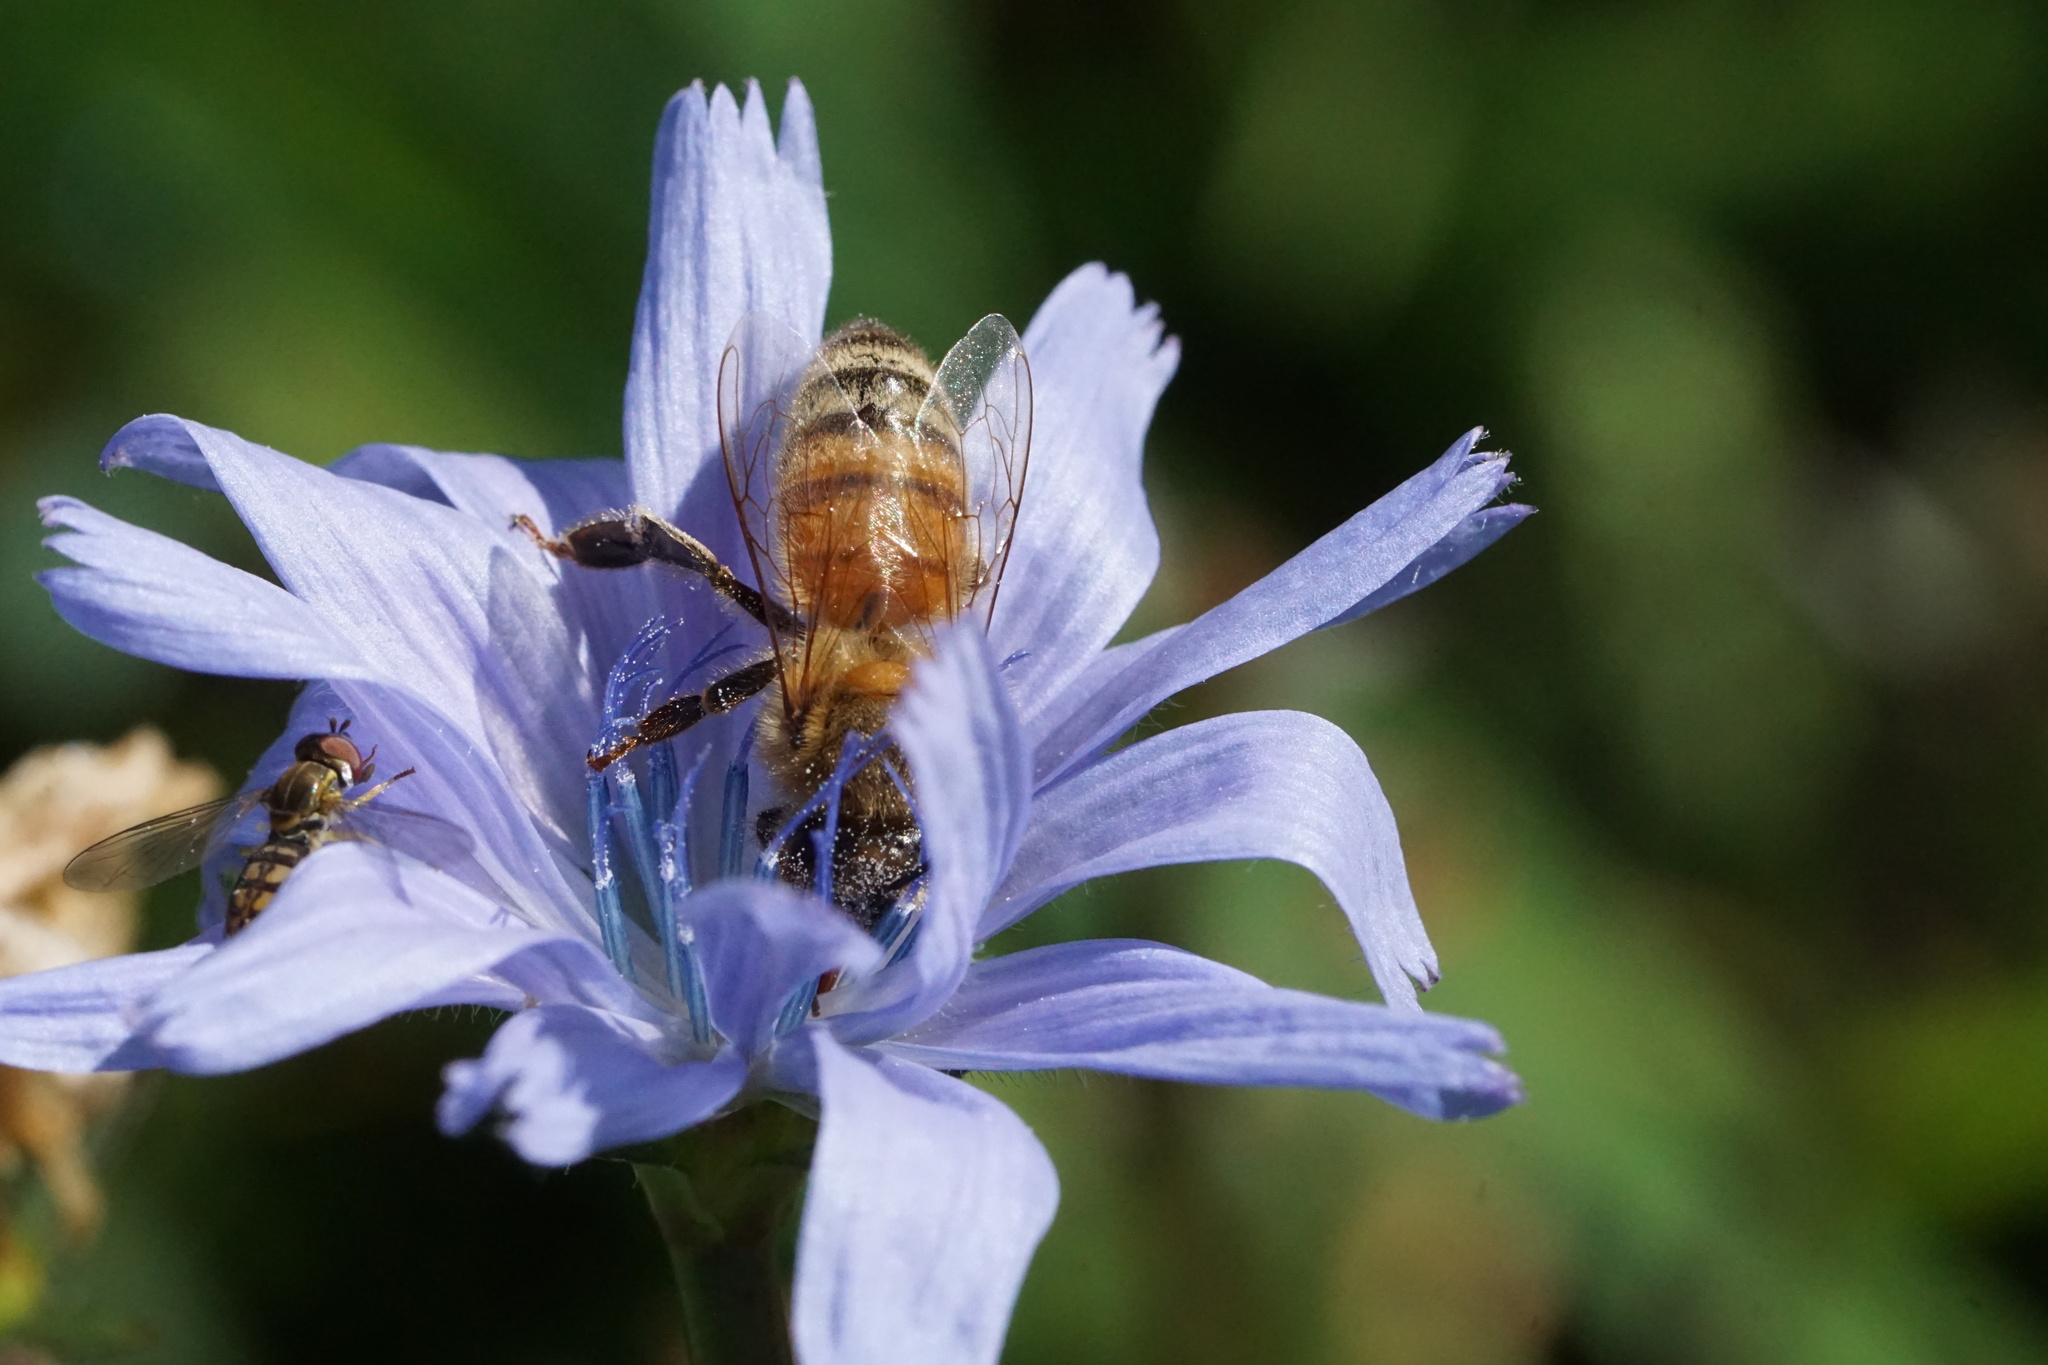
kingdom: Animalia
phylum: Arthropoda
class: Insecta
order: Hymenoptera
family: Apidae
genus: Apis
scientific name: Apis mellifera
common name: Honey bee
